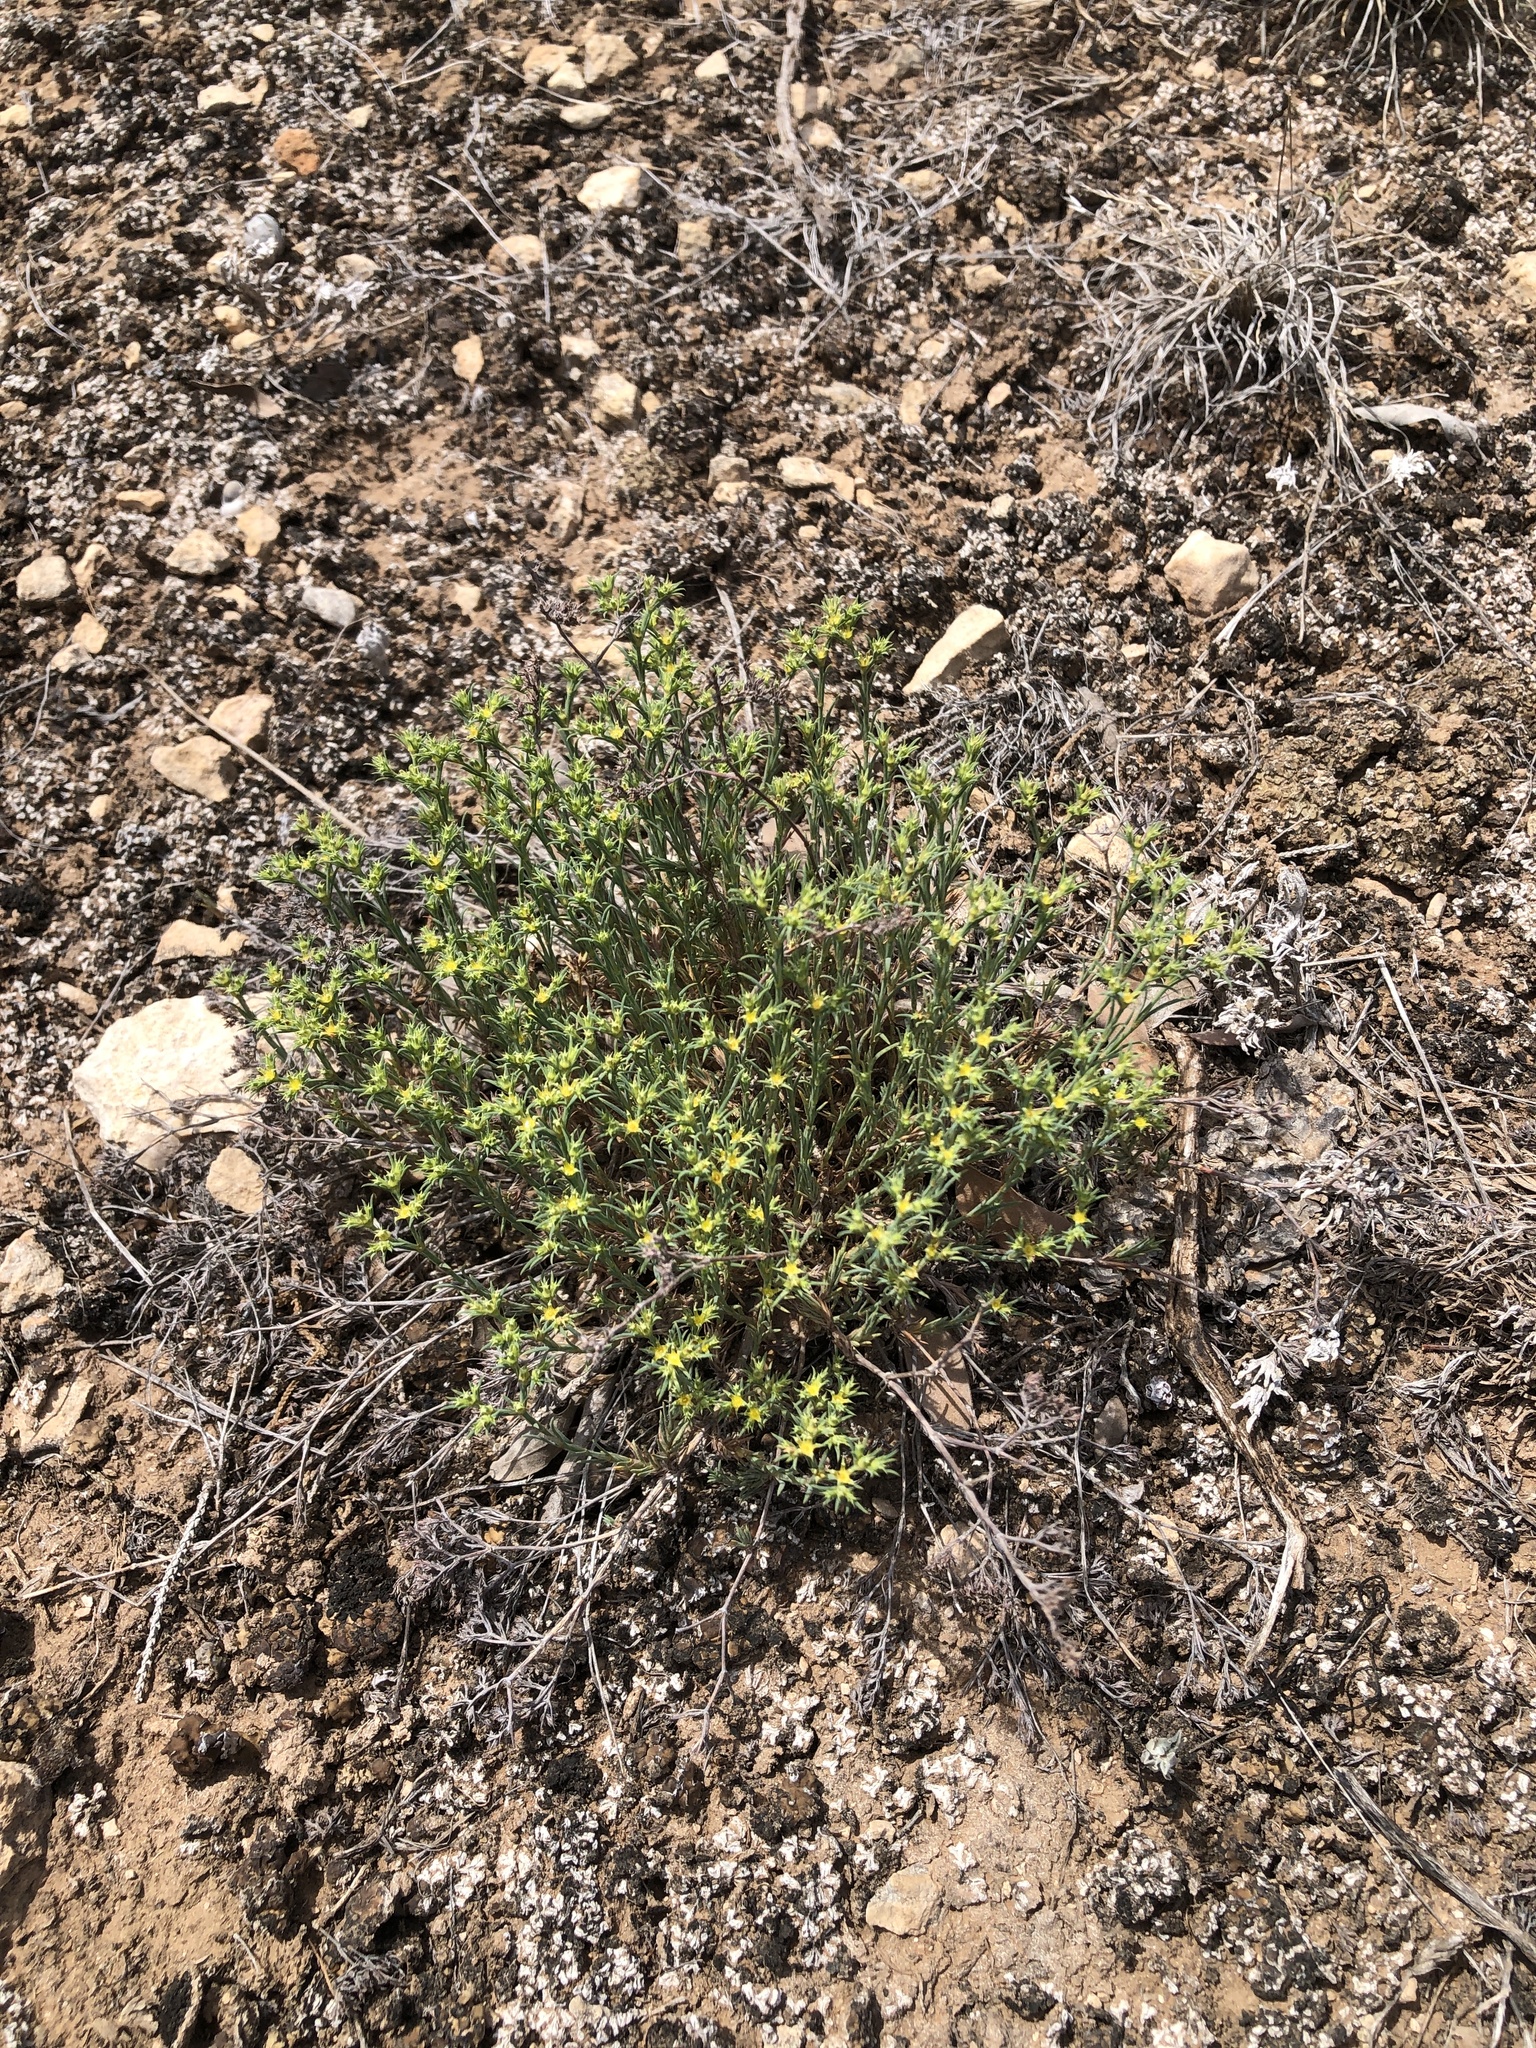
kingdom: Plantae
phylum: Tracheophyta
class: Magnoliopsida
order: Caryophyllales
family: Caryophyllaceae
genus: Paronychia
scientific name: Paronychia jamesii
